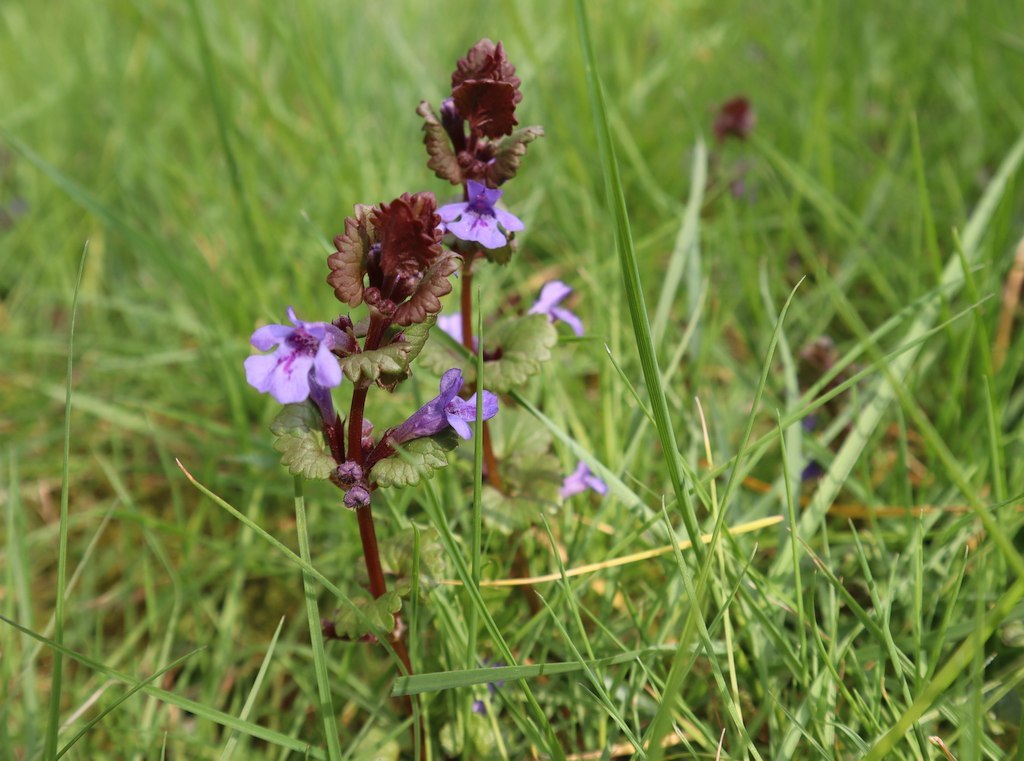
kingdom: Plantae
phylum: Tracheophyta
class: Magnoliopsida
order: Lamiales
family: Lamiaceae
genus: Glechoma
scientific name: Glechoma hederacea
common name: Ground ivy
